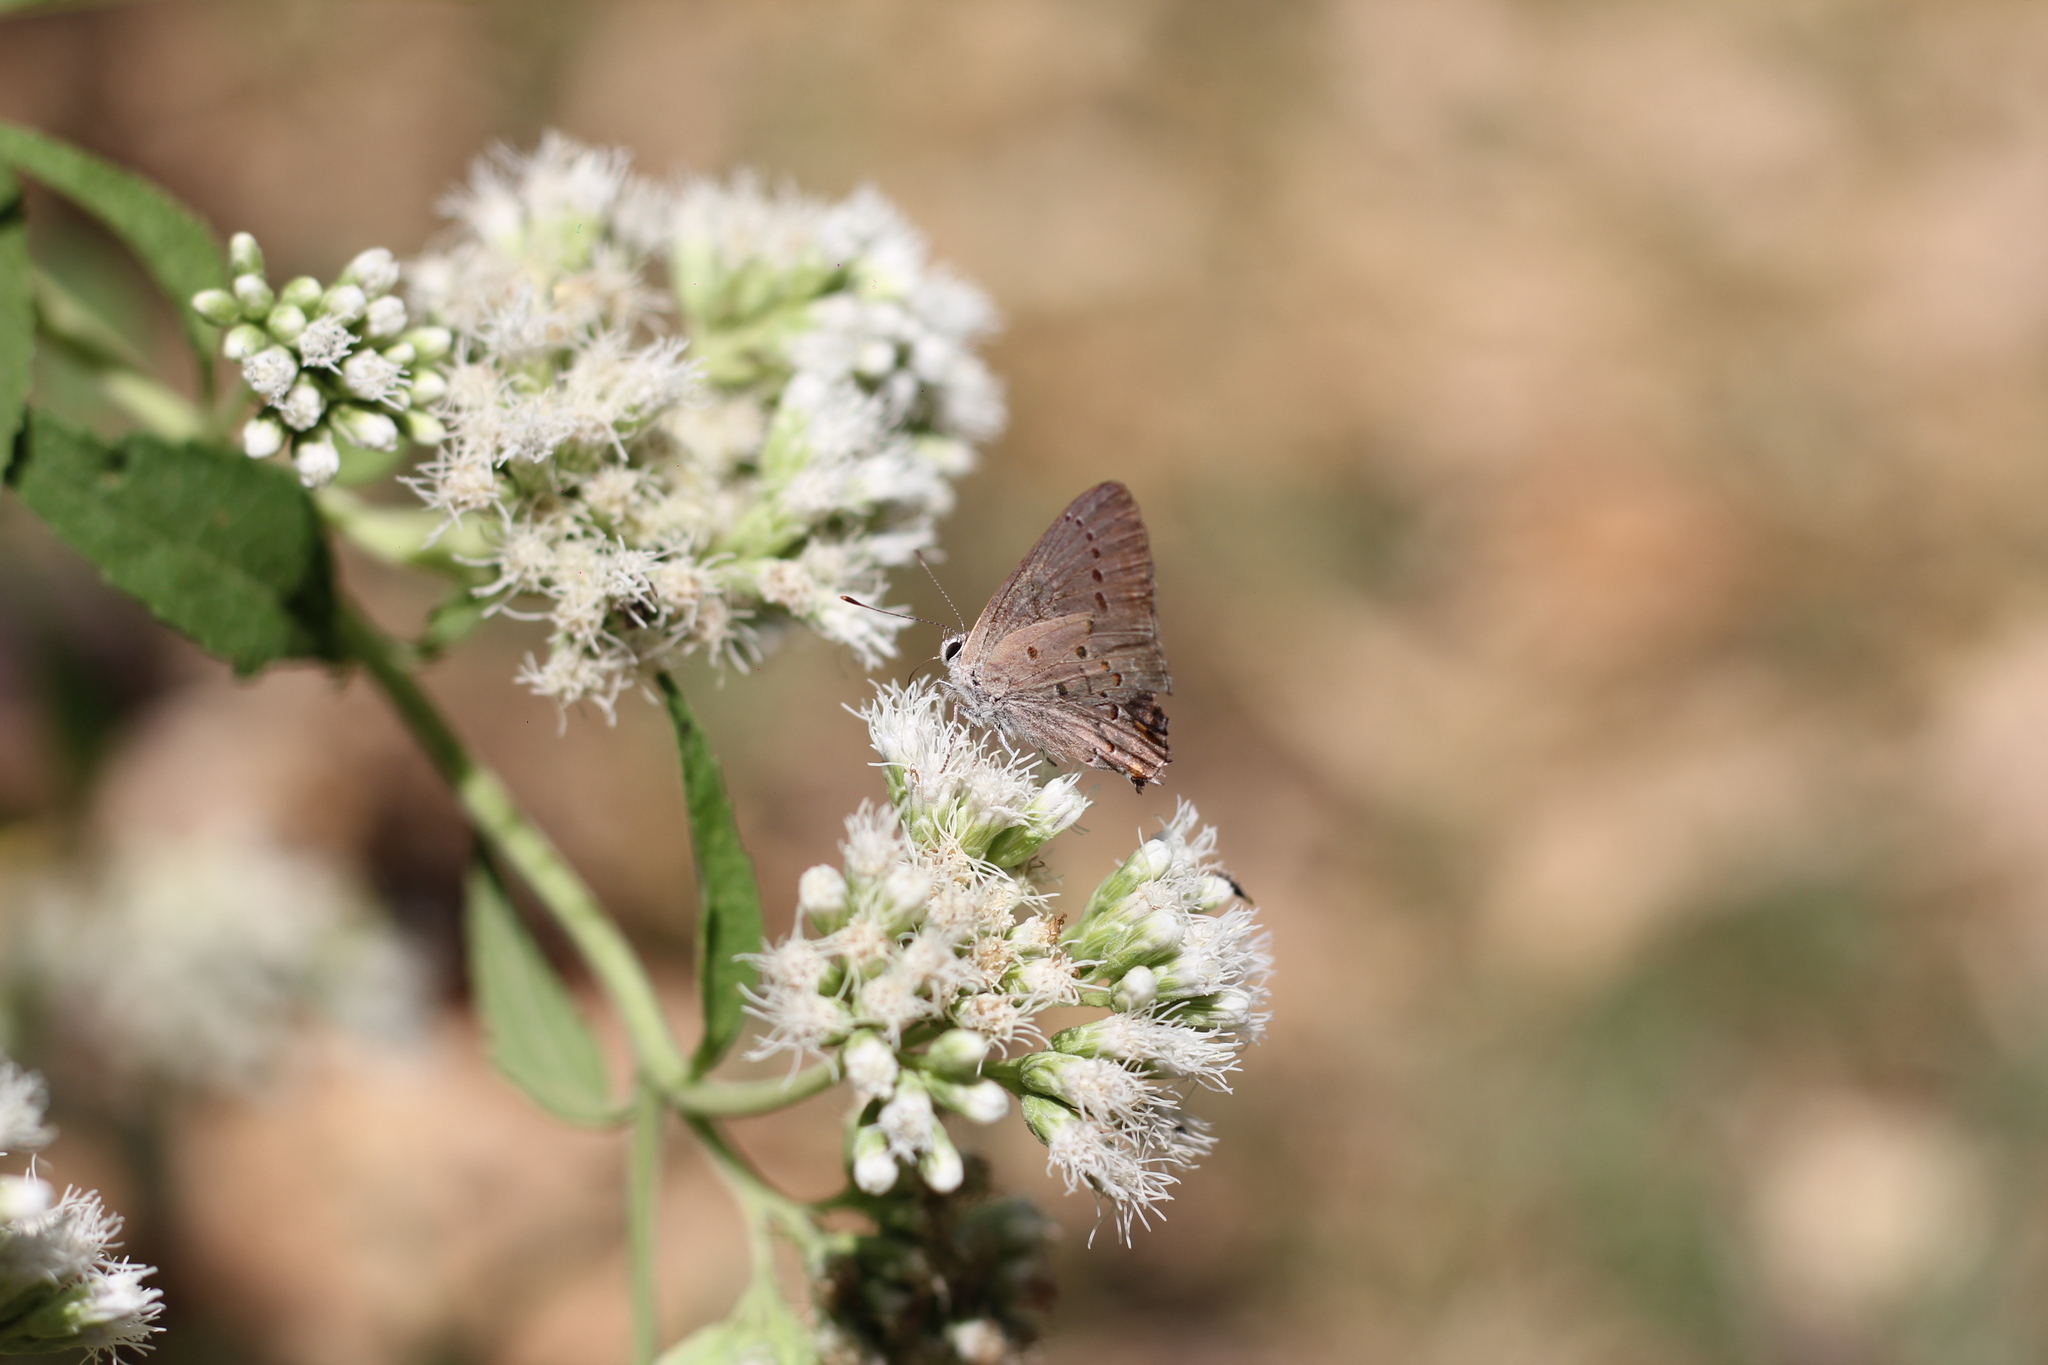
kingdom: Animalia
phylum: Arthropoda
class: Insecta
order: Lepidoptera
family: Lycaenidae
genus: Strymon
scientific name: Strymon eurytulus
